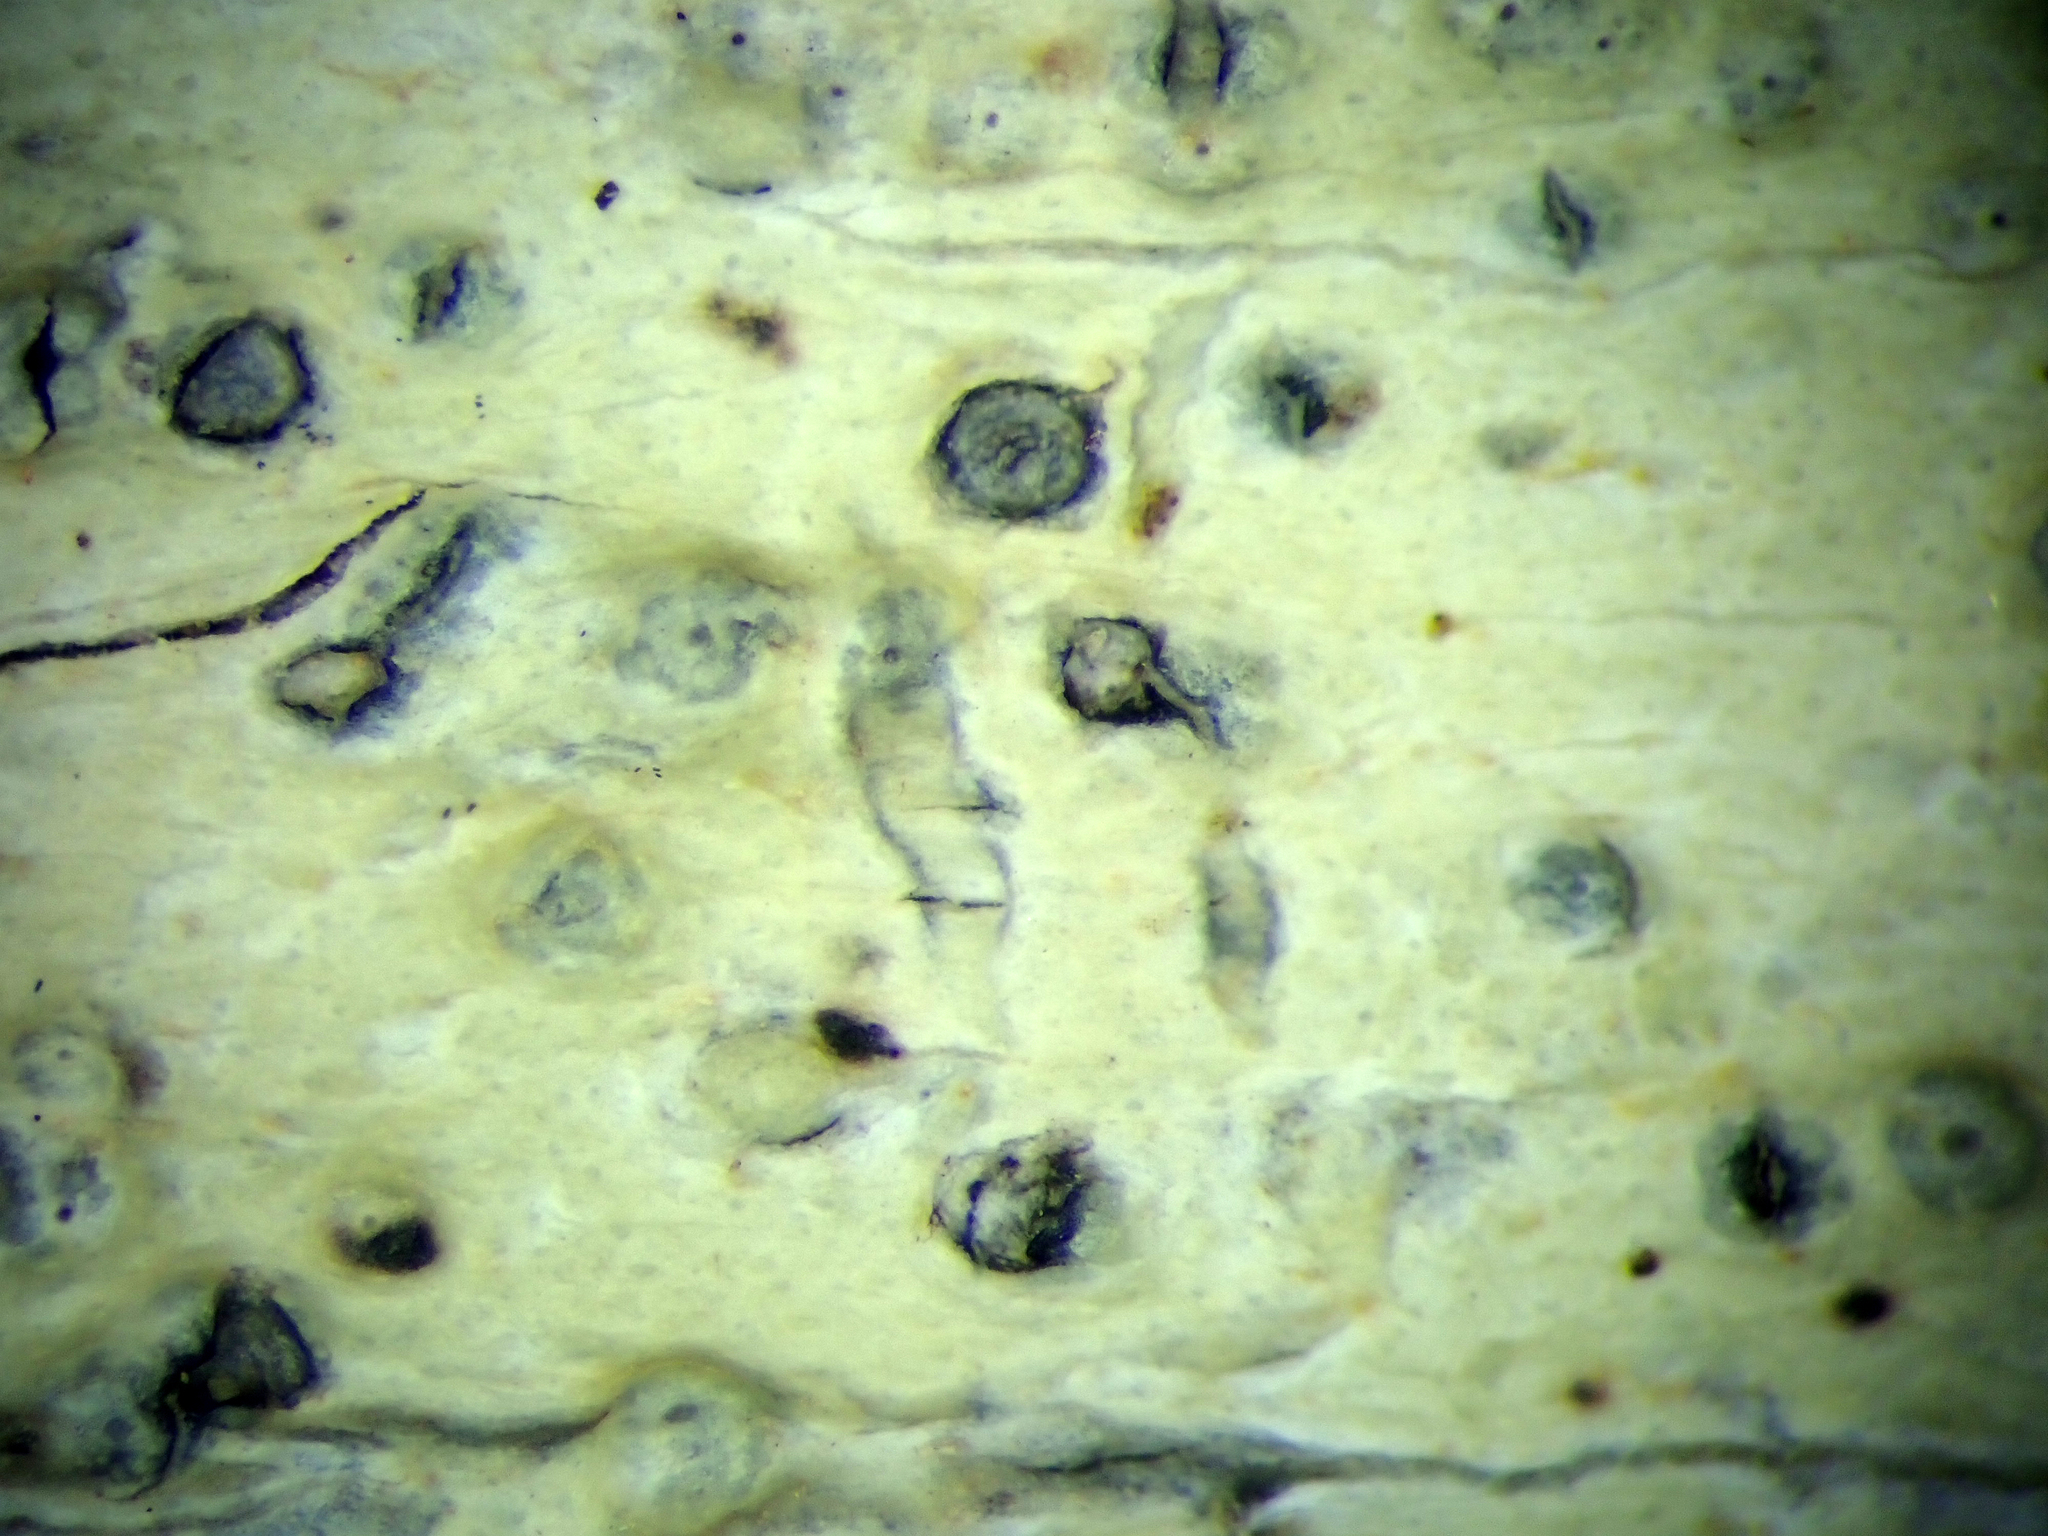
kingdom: Fungi
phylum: Ascomycota
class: Eurotiomycetes
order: Pyrenulales
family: Pyrenulaceae
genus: Pyrenula
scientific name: Pyrenula microcarpa
